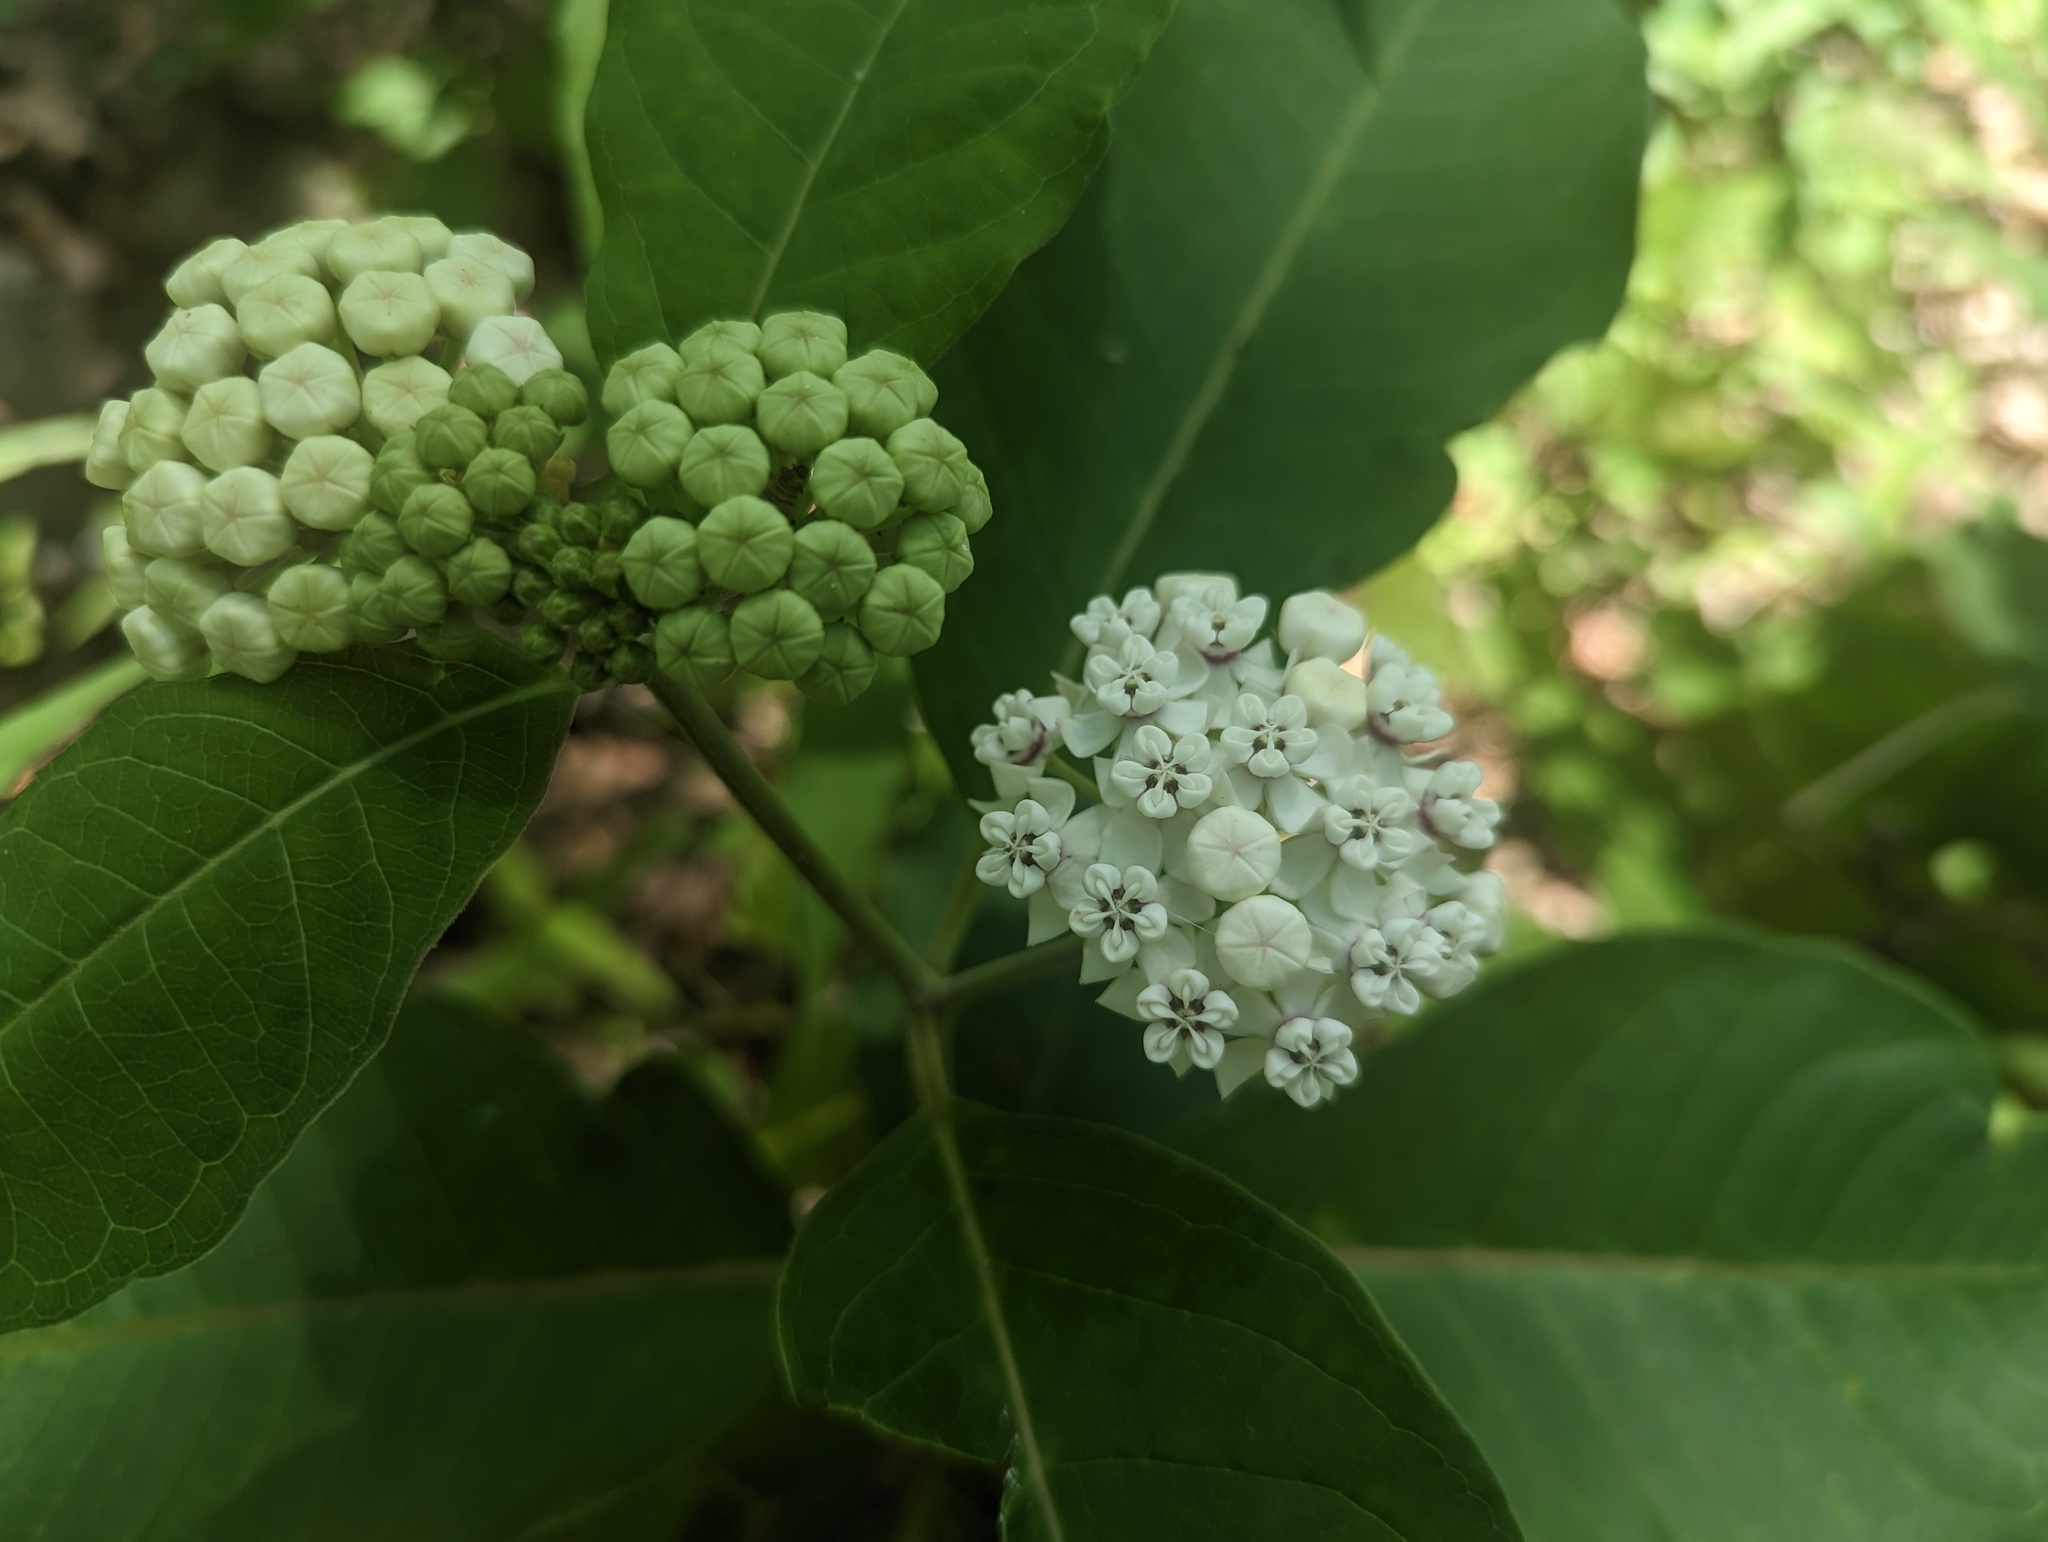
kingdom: Plantae
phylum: Tracheophyta
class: Magnoliopsida
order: Gentianales
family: Apocynaceae
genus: Asclepias
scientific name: Asclepias variegata
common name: Variegated milkweed
